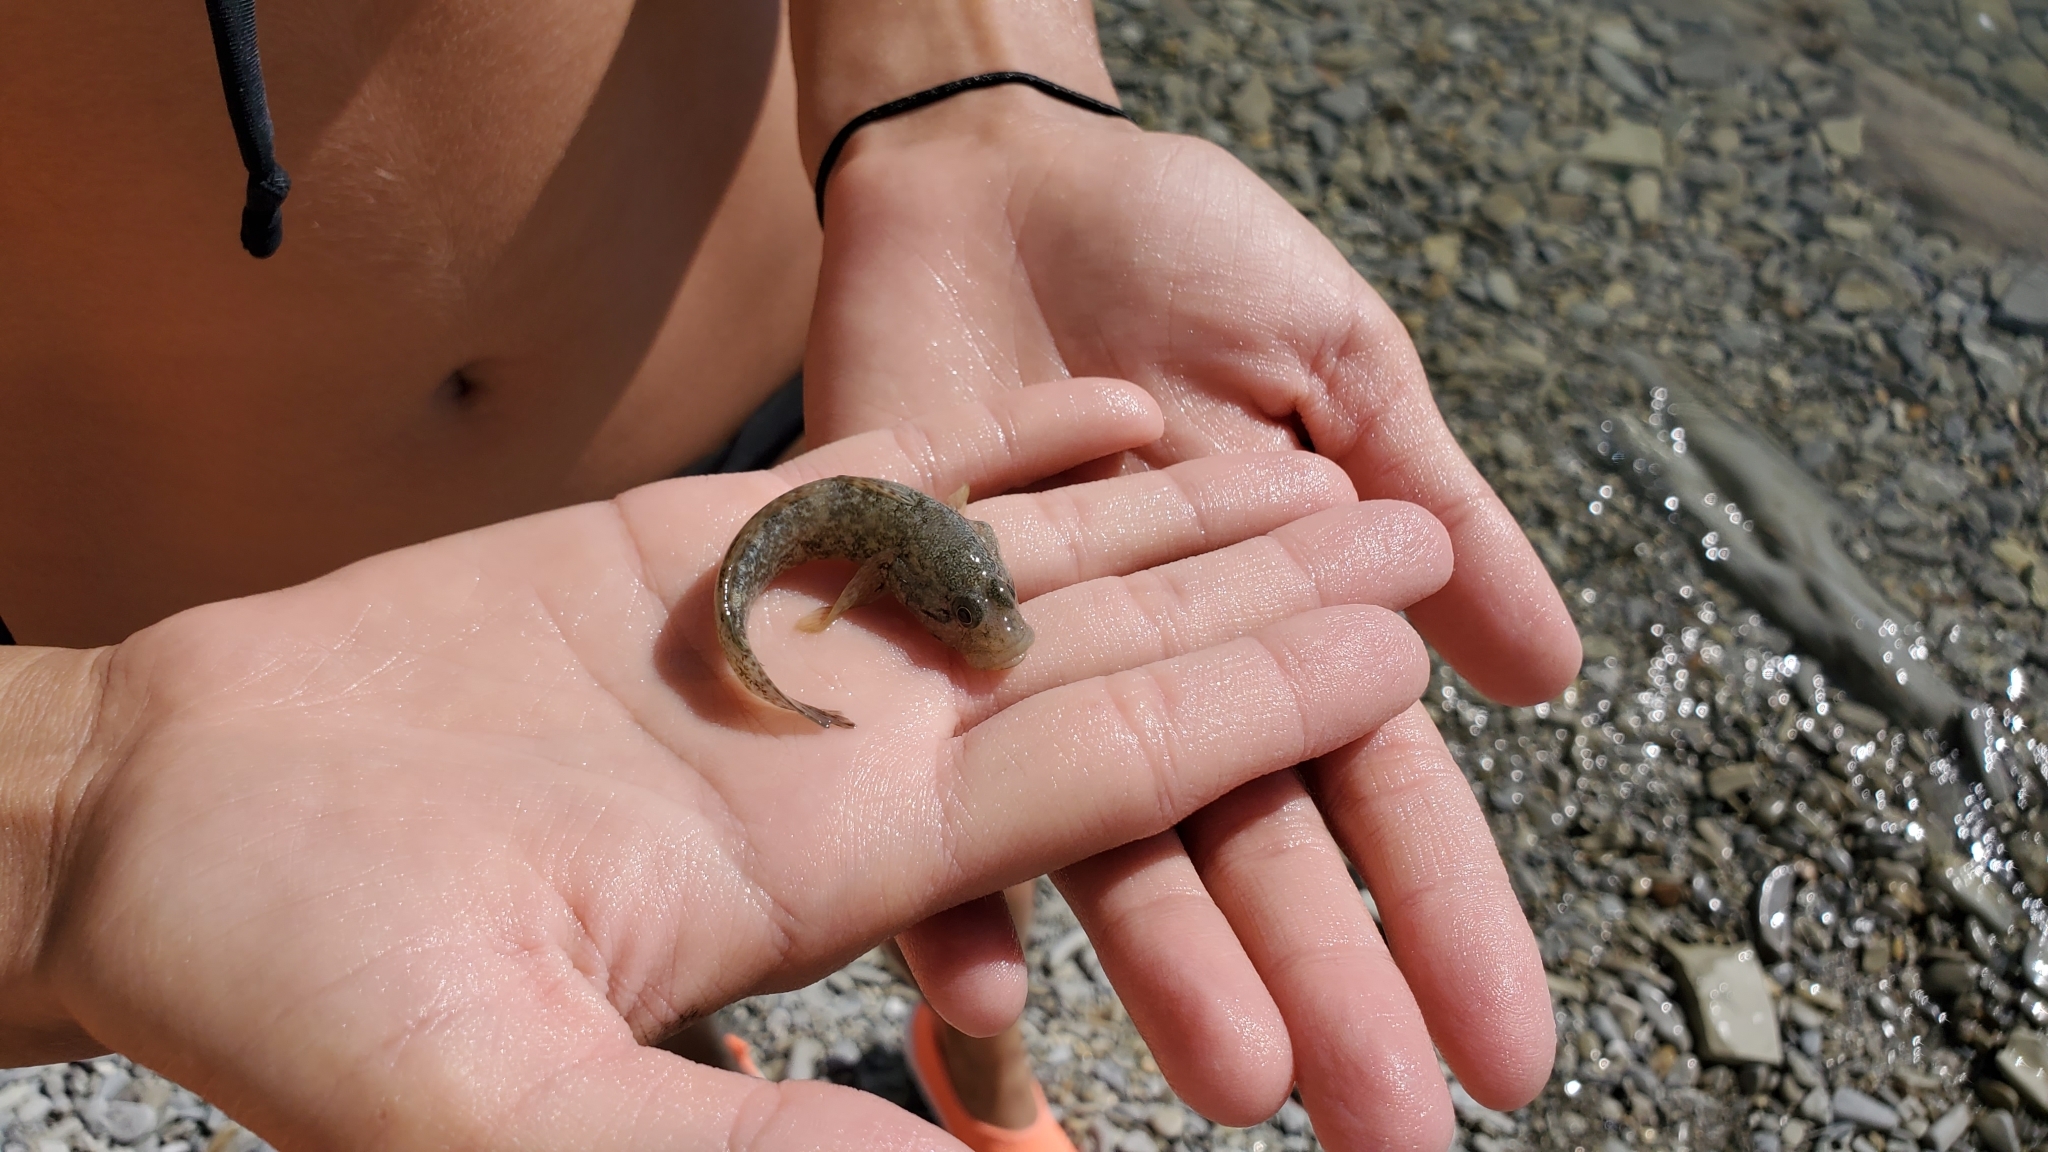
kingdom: Animalia
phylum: Chordata
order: Perciformes
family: Gobiidae
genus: Ponticola
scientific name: Ponticola platyrostris
